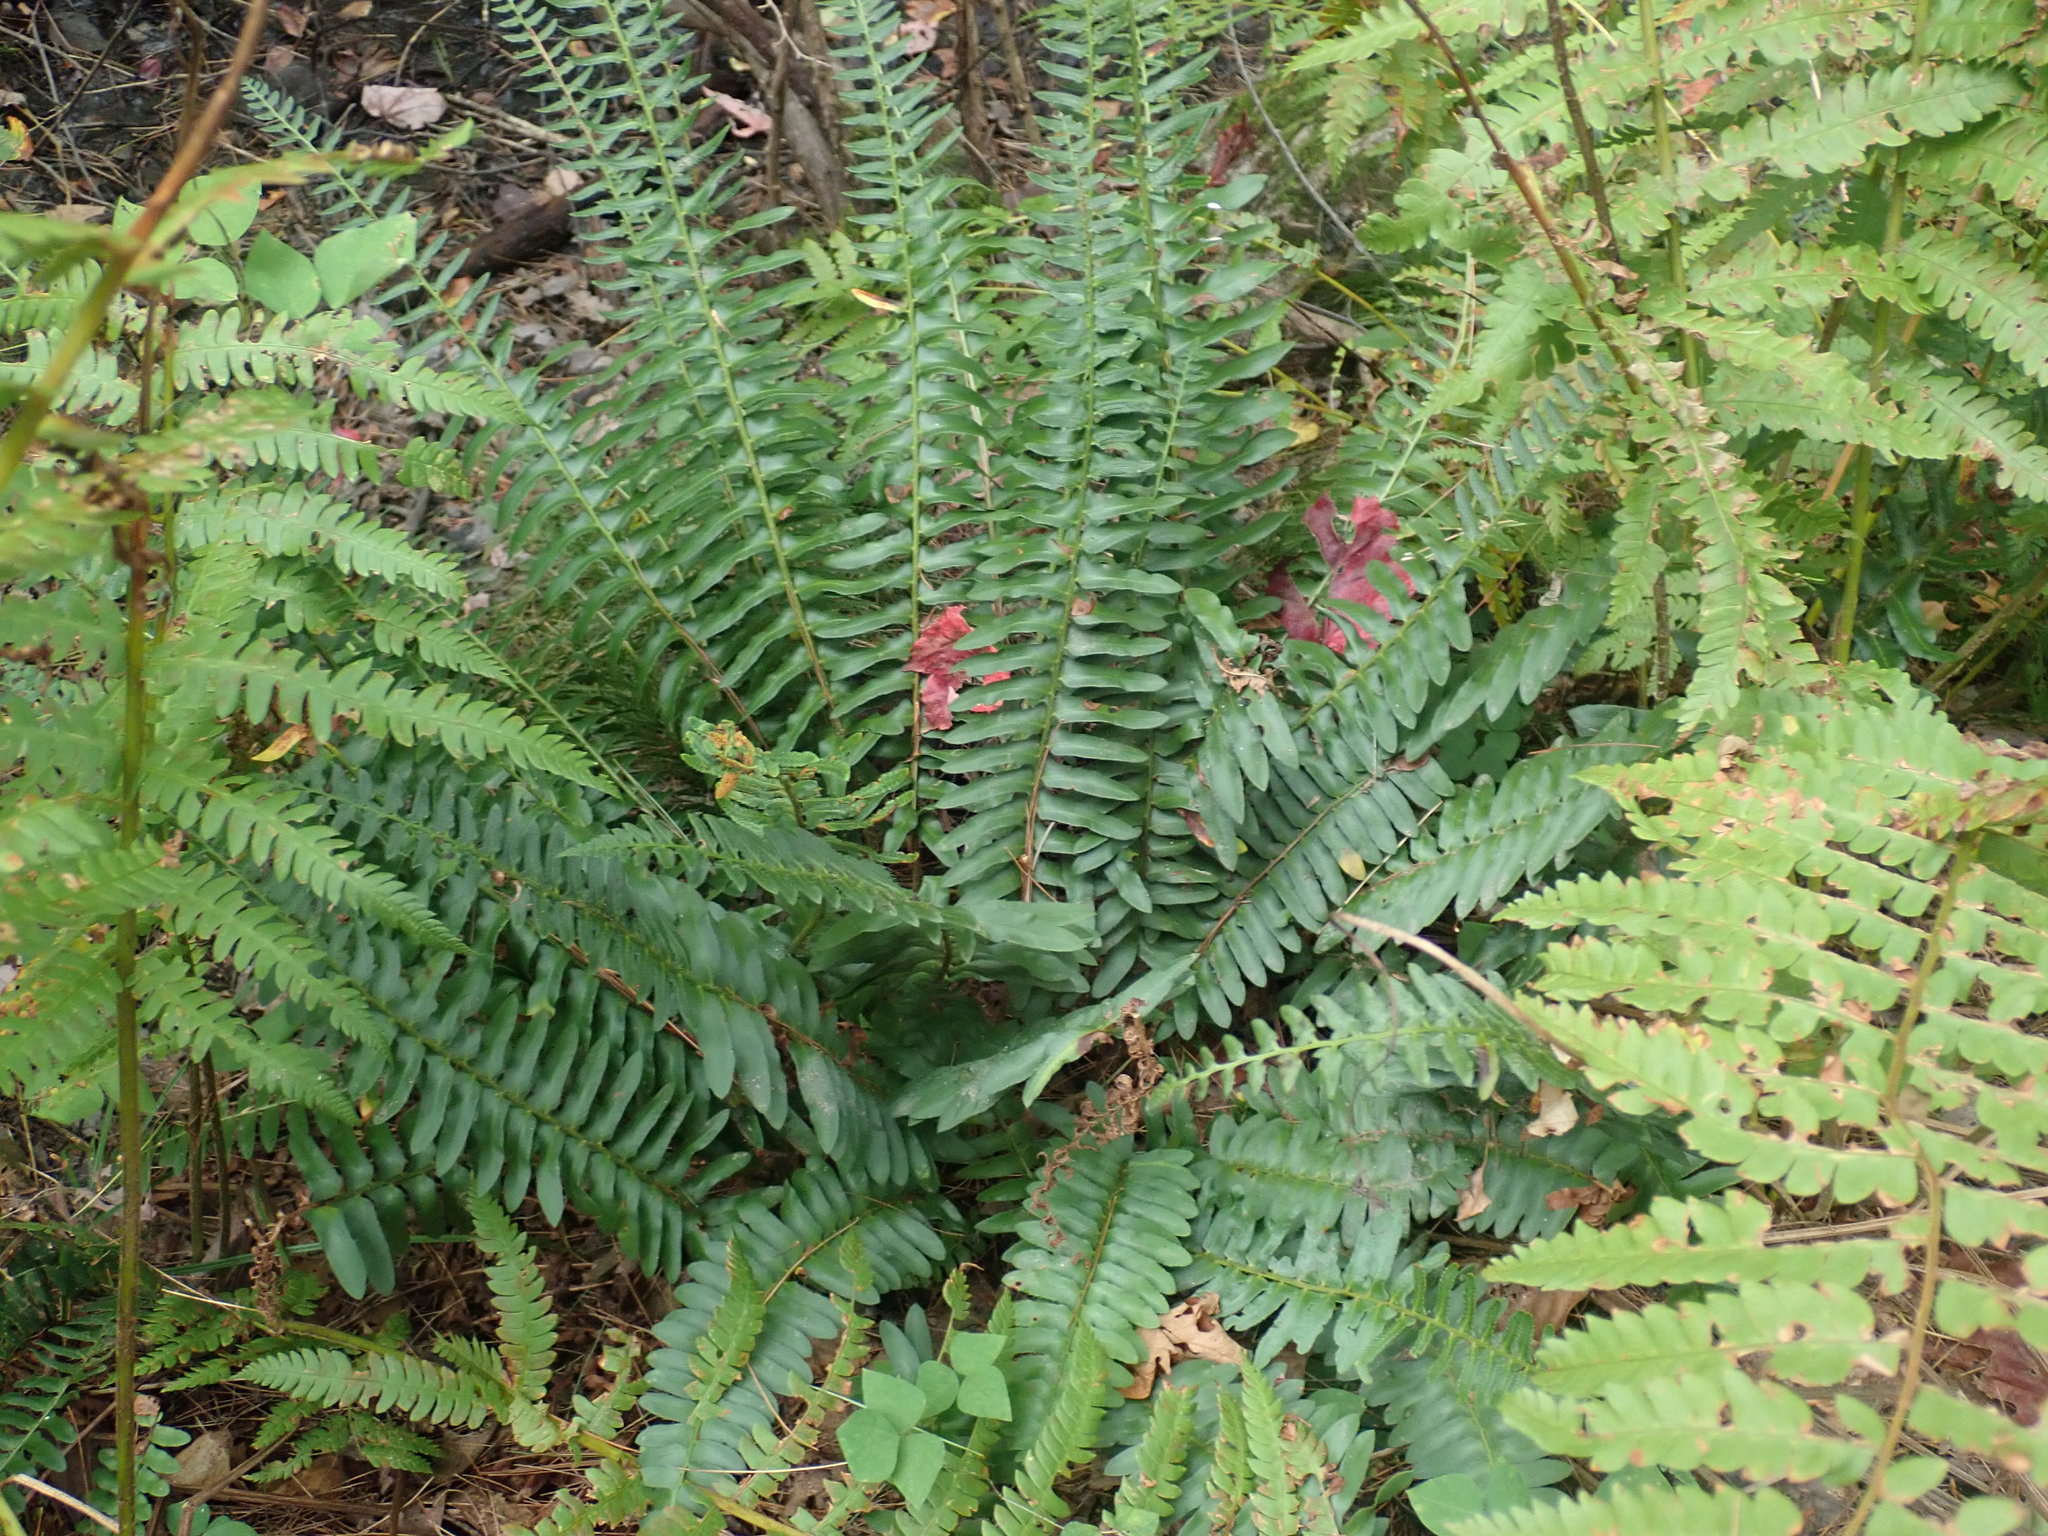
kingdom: Plantae
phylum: Tracheophyta
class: Polypodiopsida
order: Polypodiales
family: Dryopteridaceae
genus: Polystichum
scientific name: Polystichum acrostichoides
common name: Christmas fern
